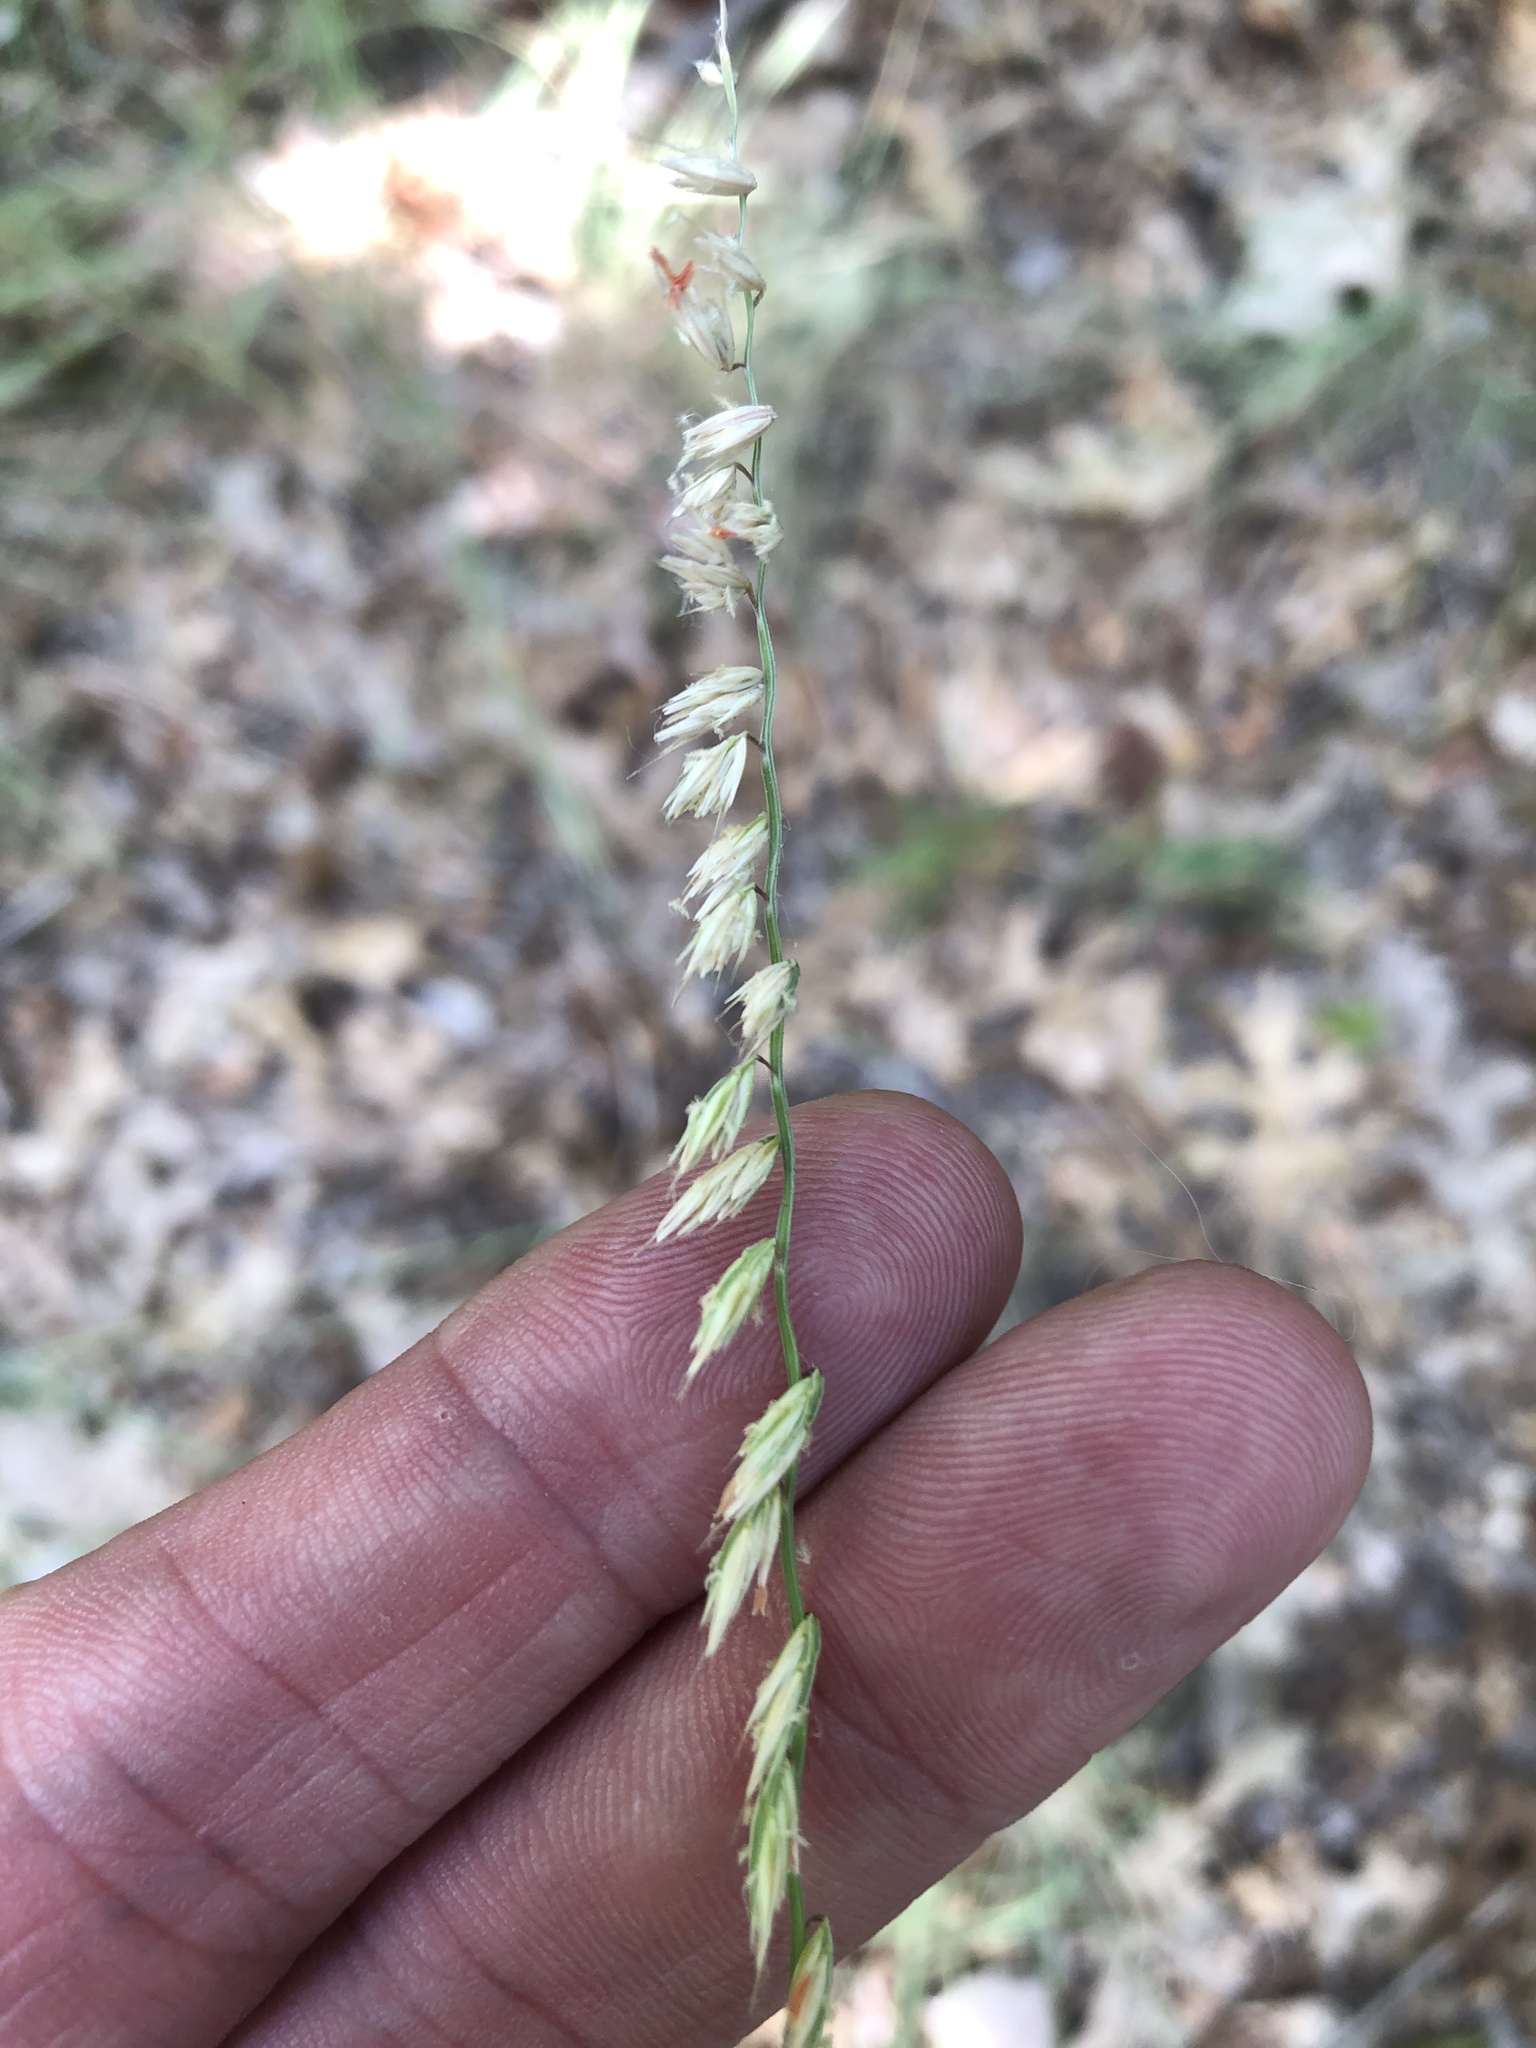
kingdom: Plantae
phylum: Tracheophyta
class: Liliopsida
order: Poales
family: Poaceae
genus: Bouteloua
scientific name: Bouteloua curtipendula
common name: Side-oats grama
